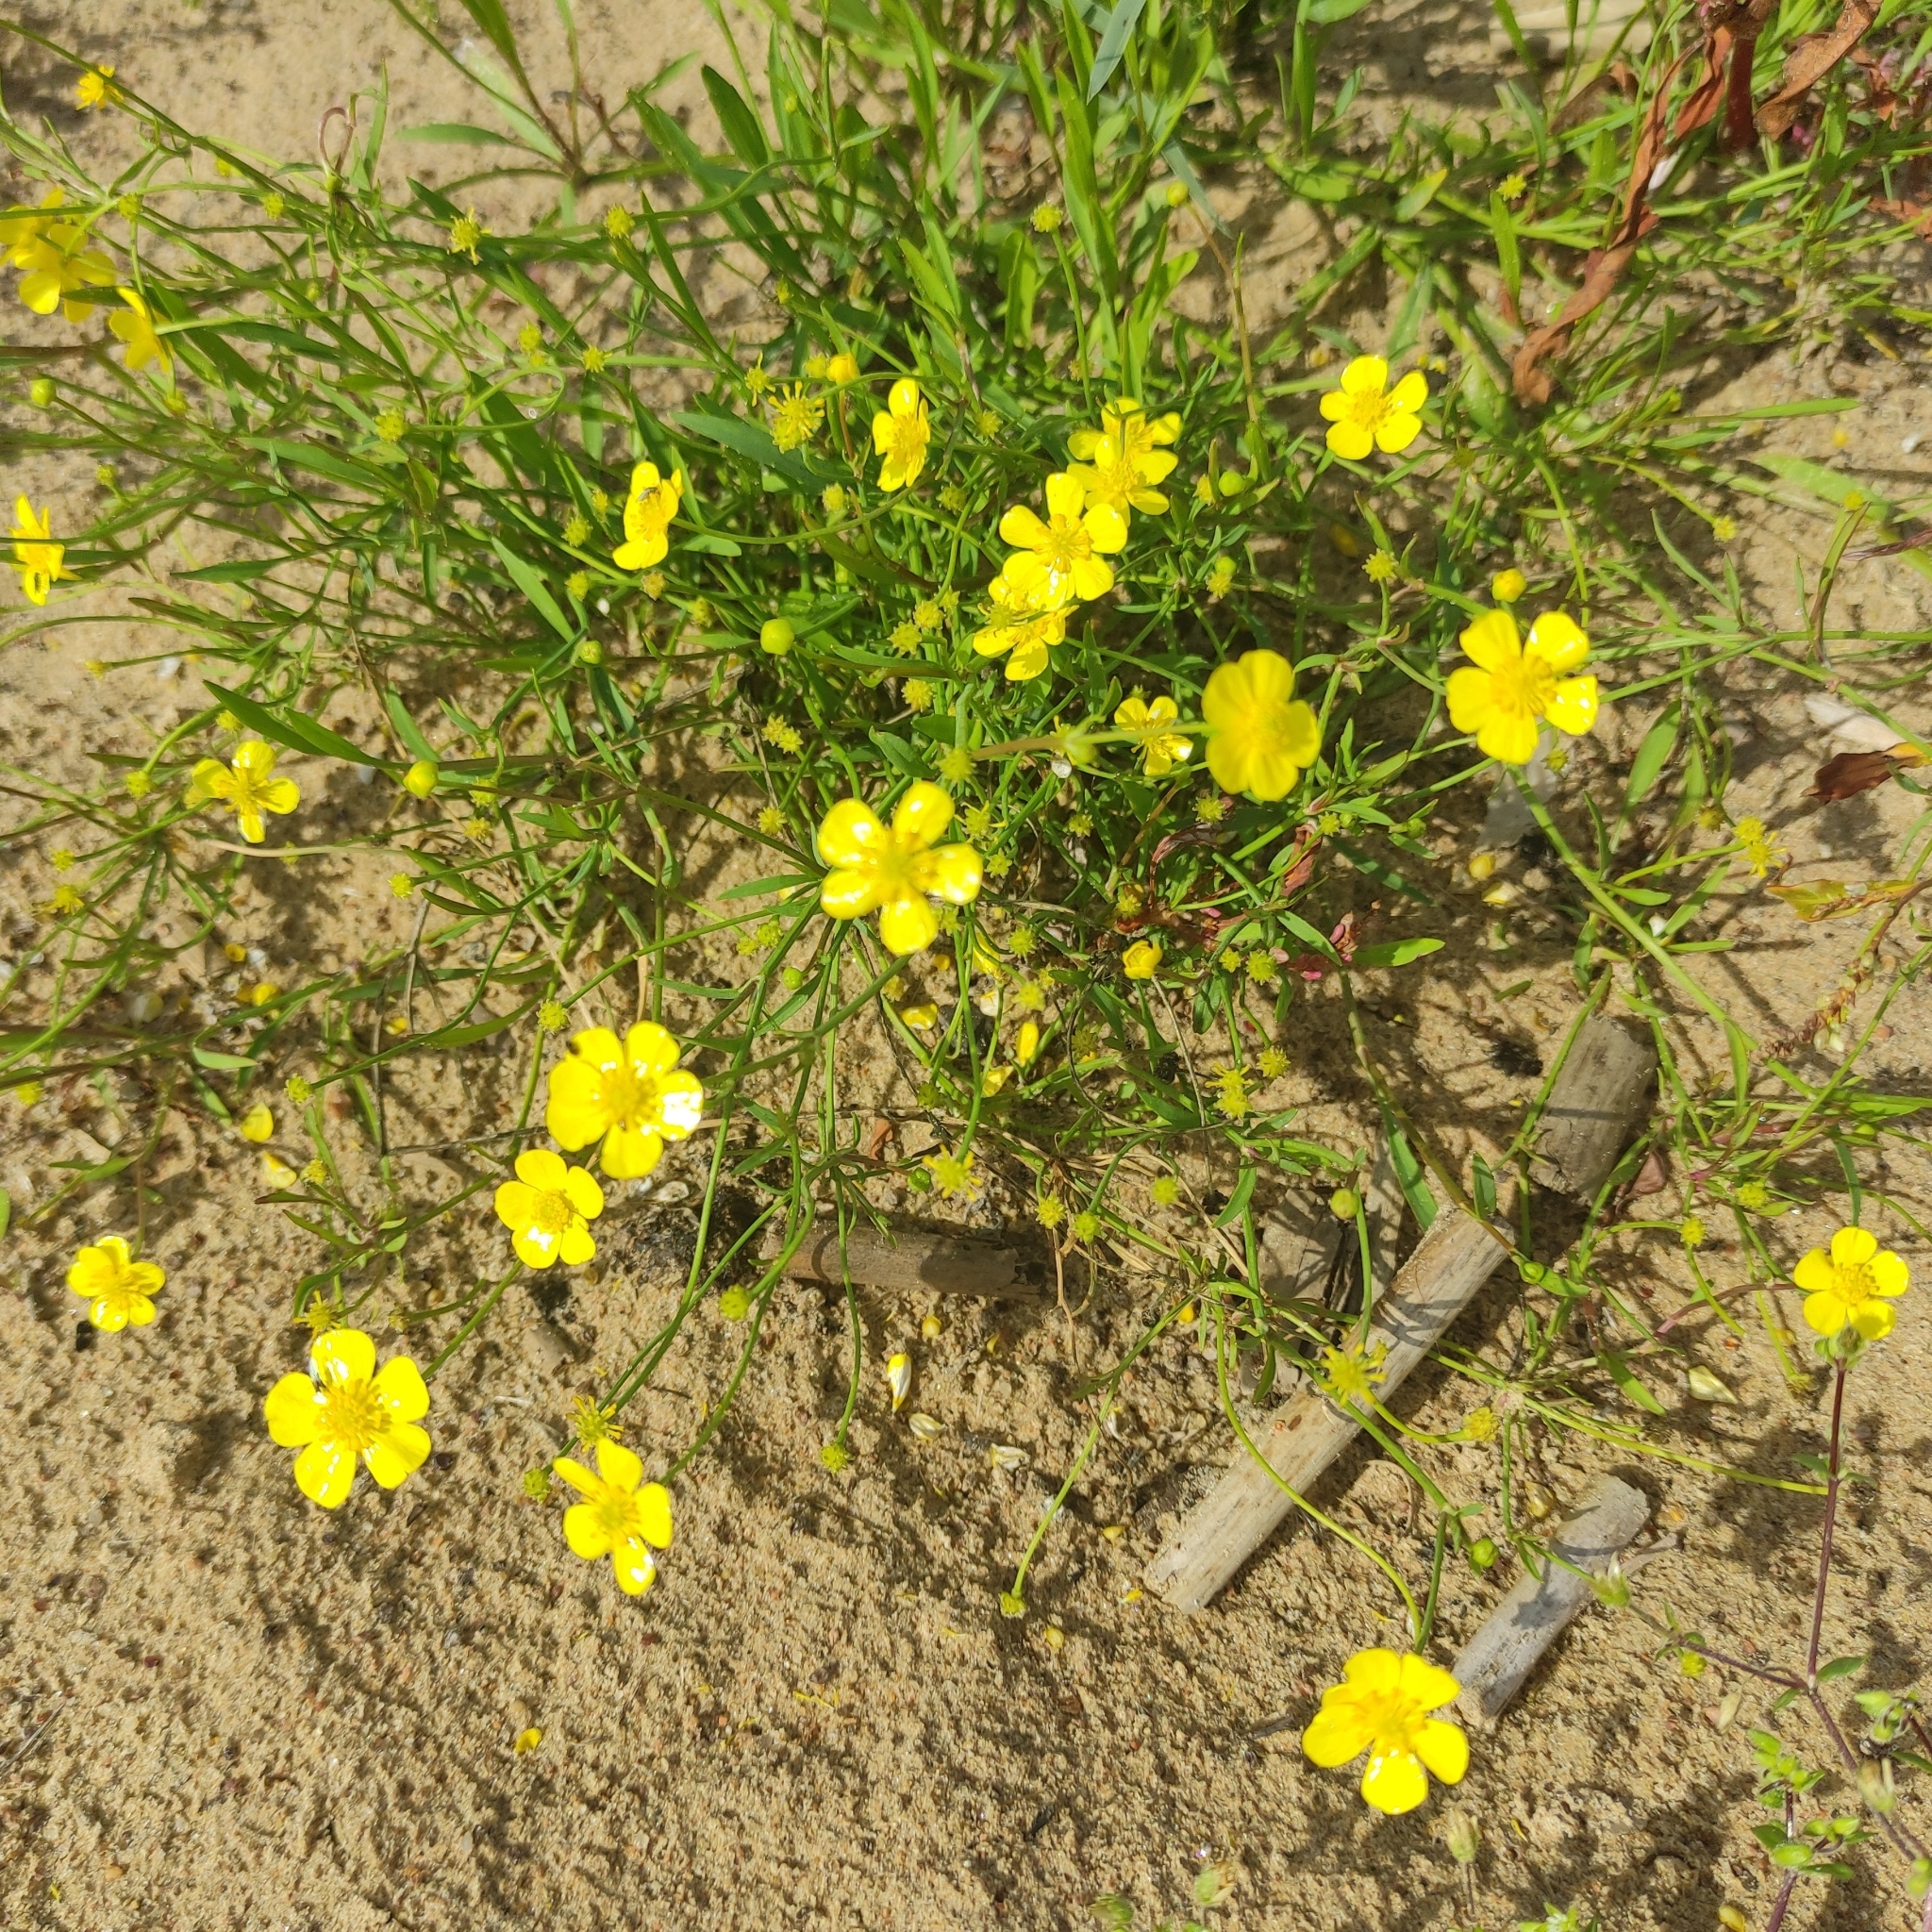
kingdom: Plantae
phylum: Tracheophyta
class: Magnoliopsida
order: Ranunculales
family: Ranunculaceae
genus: Ranunculus
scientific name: Ranunculus flammula
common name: Lesser spearwort
